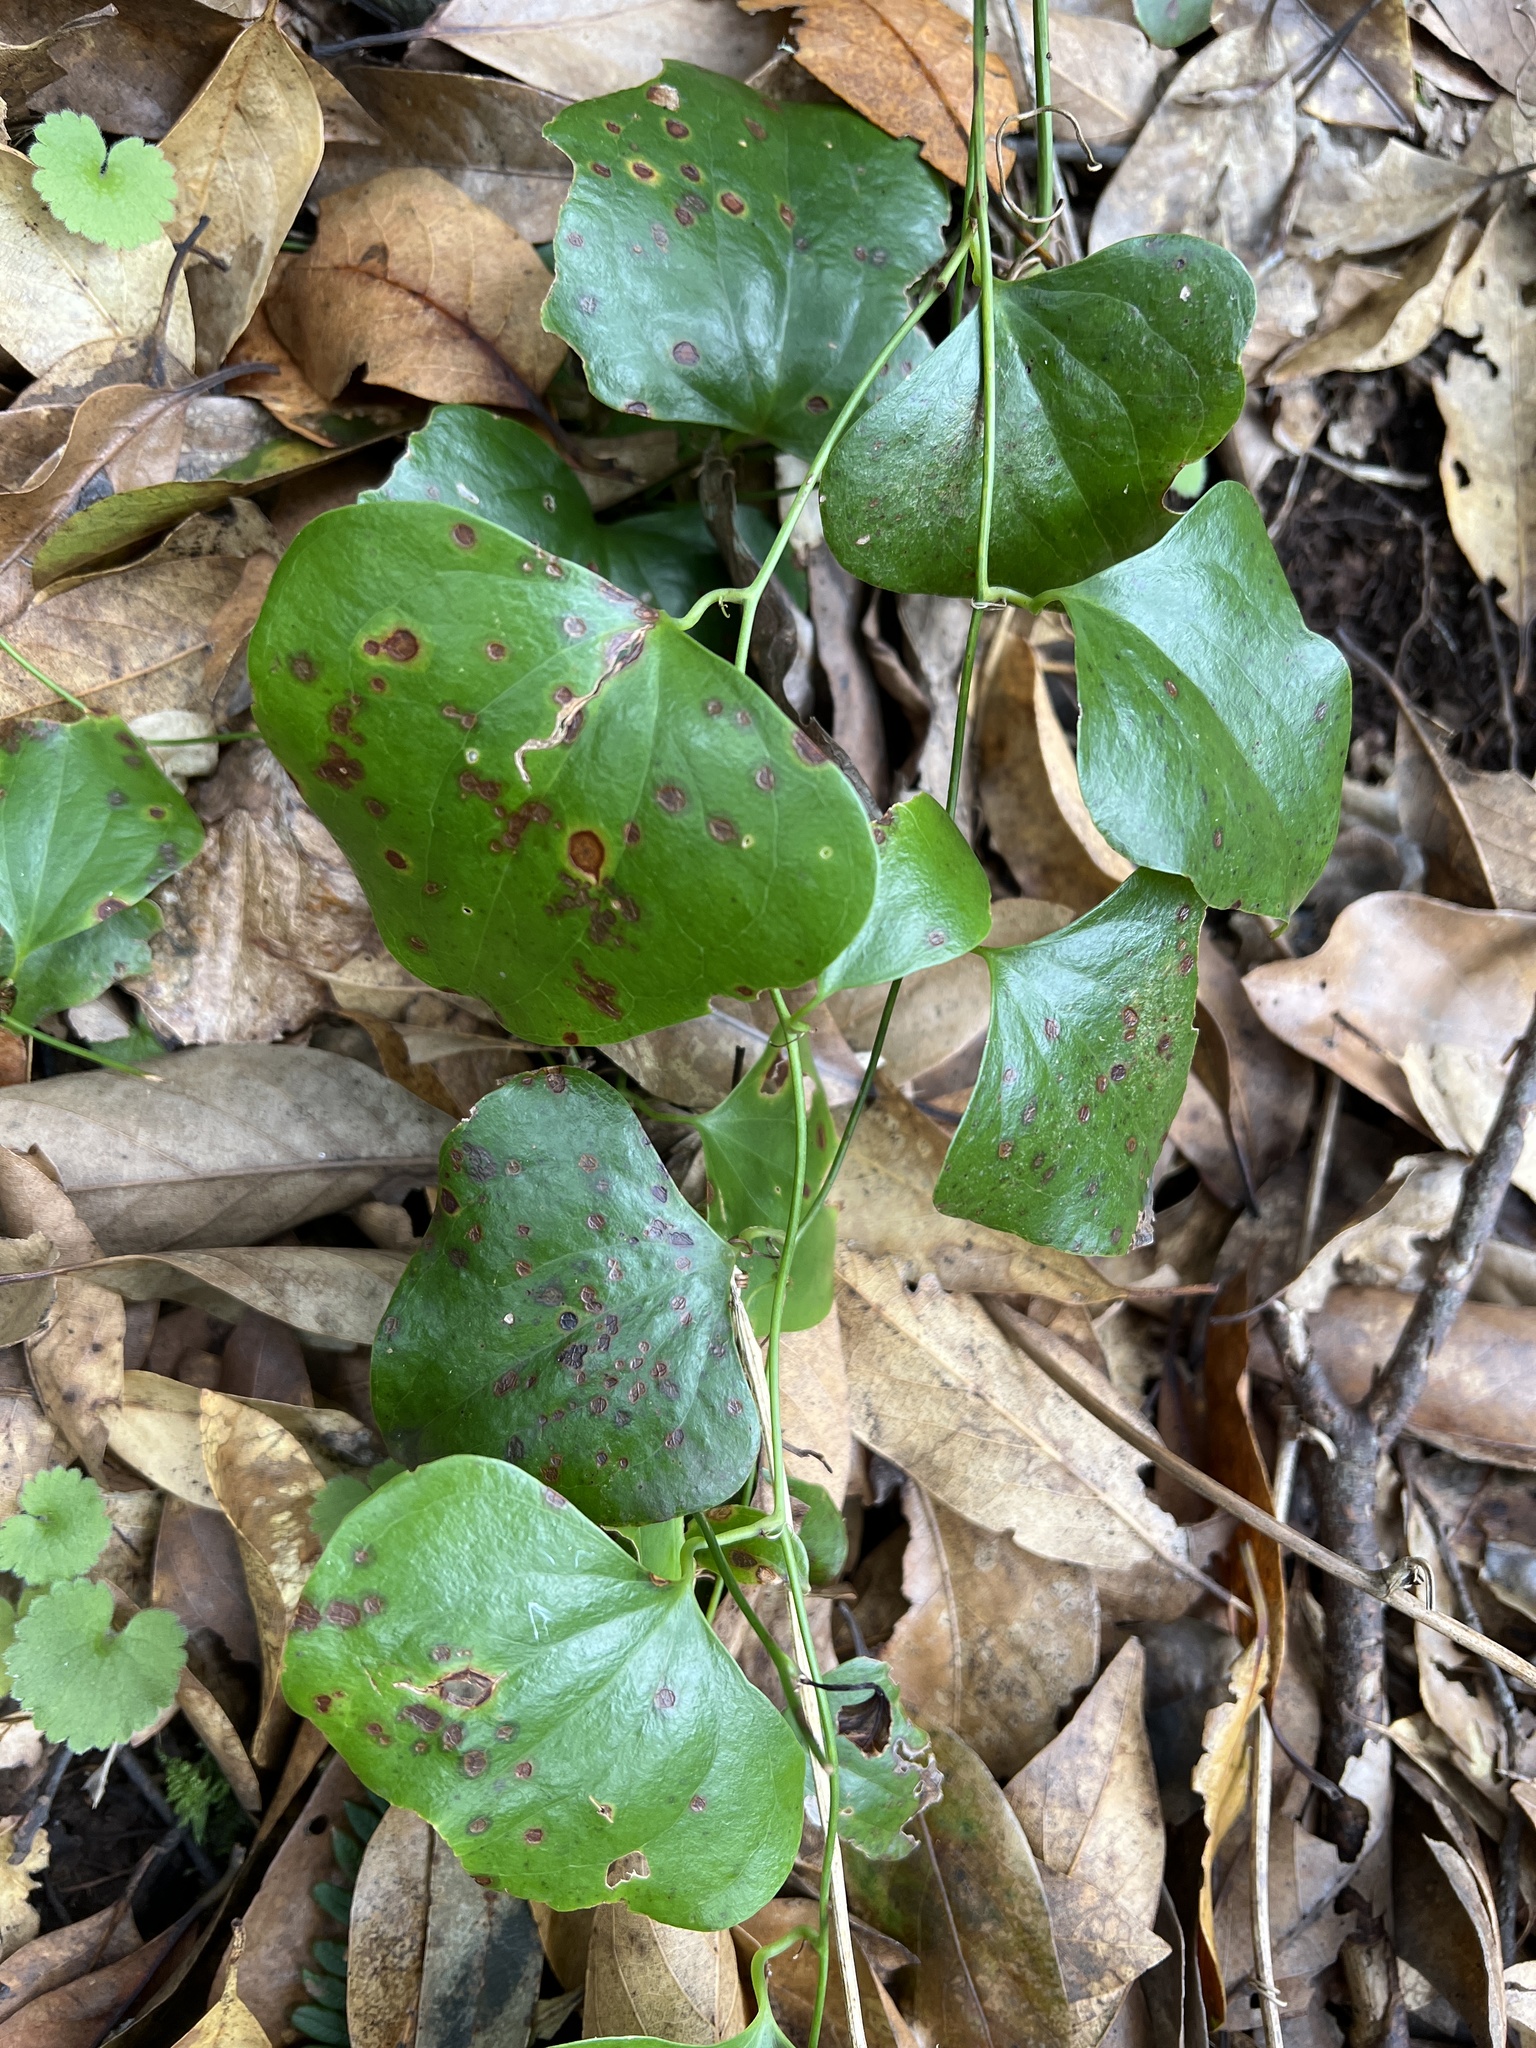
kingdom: Plantae
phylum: Tracheophyta
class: Liliopsida
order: Liliales
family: Smilacaceae
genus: Smilax
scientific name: Smilax aspera
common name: Common smilax
